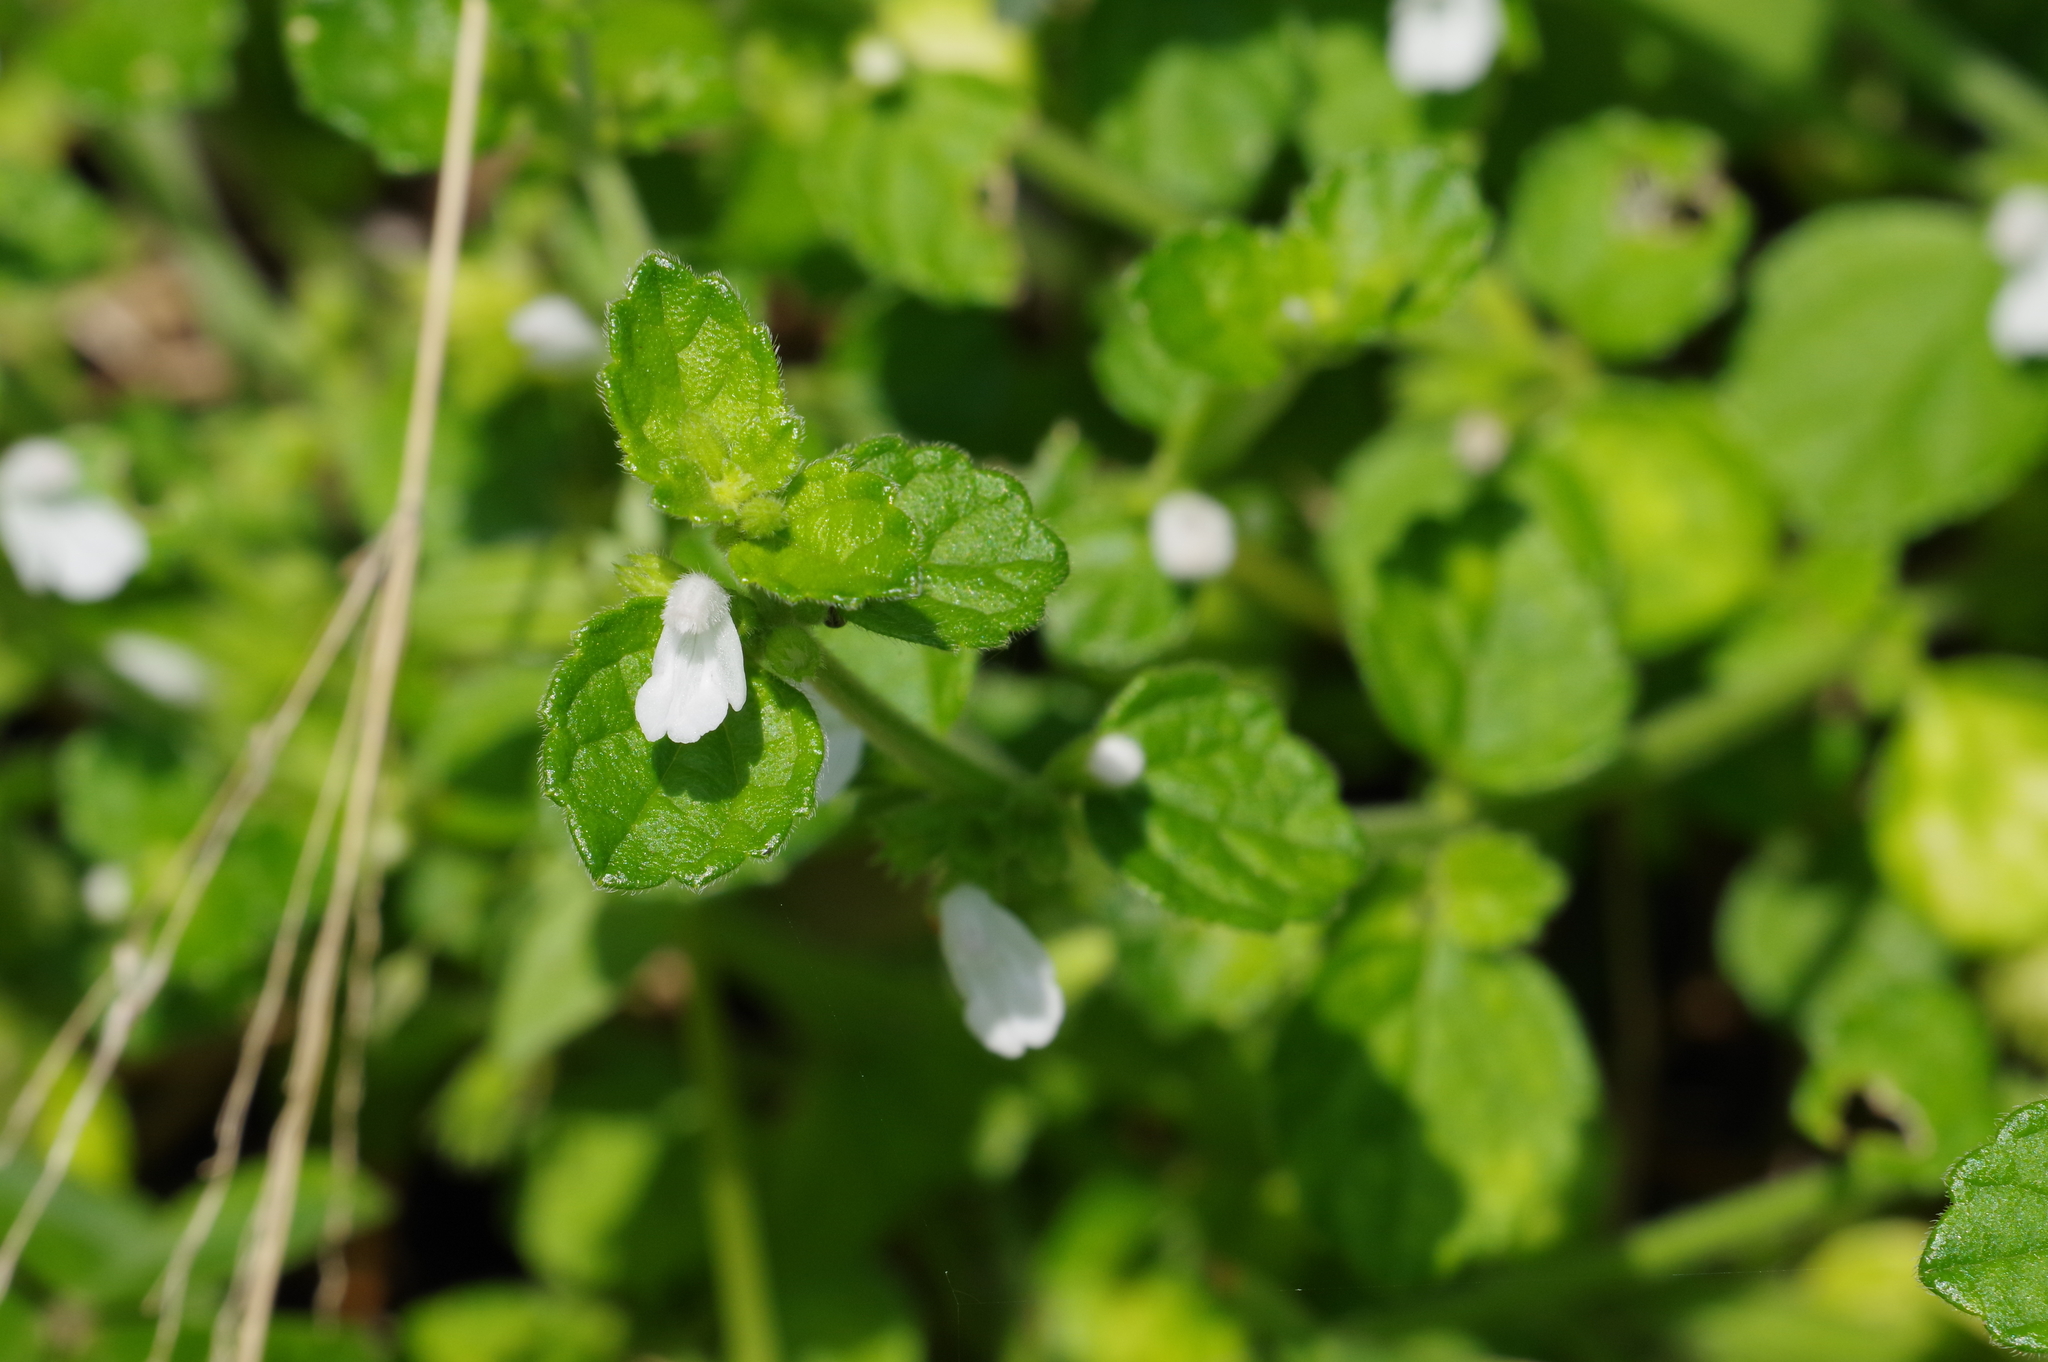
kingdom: Plantae
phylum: Tracheophyta
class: Magnoliopsida
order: Lamiales
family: Lamiaceae
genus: Leucas
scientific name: Leucas chinensis
